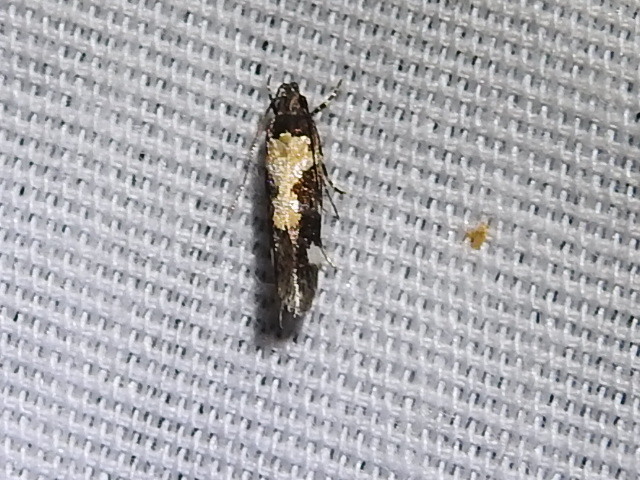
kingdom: Animalia
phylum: Arthropoda
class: Insecta
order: Lepidoptera
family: Gelechiidae
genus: Stegasta
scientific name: Stegasta bosqueella
